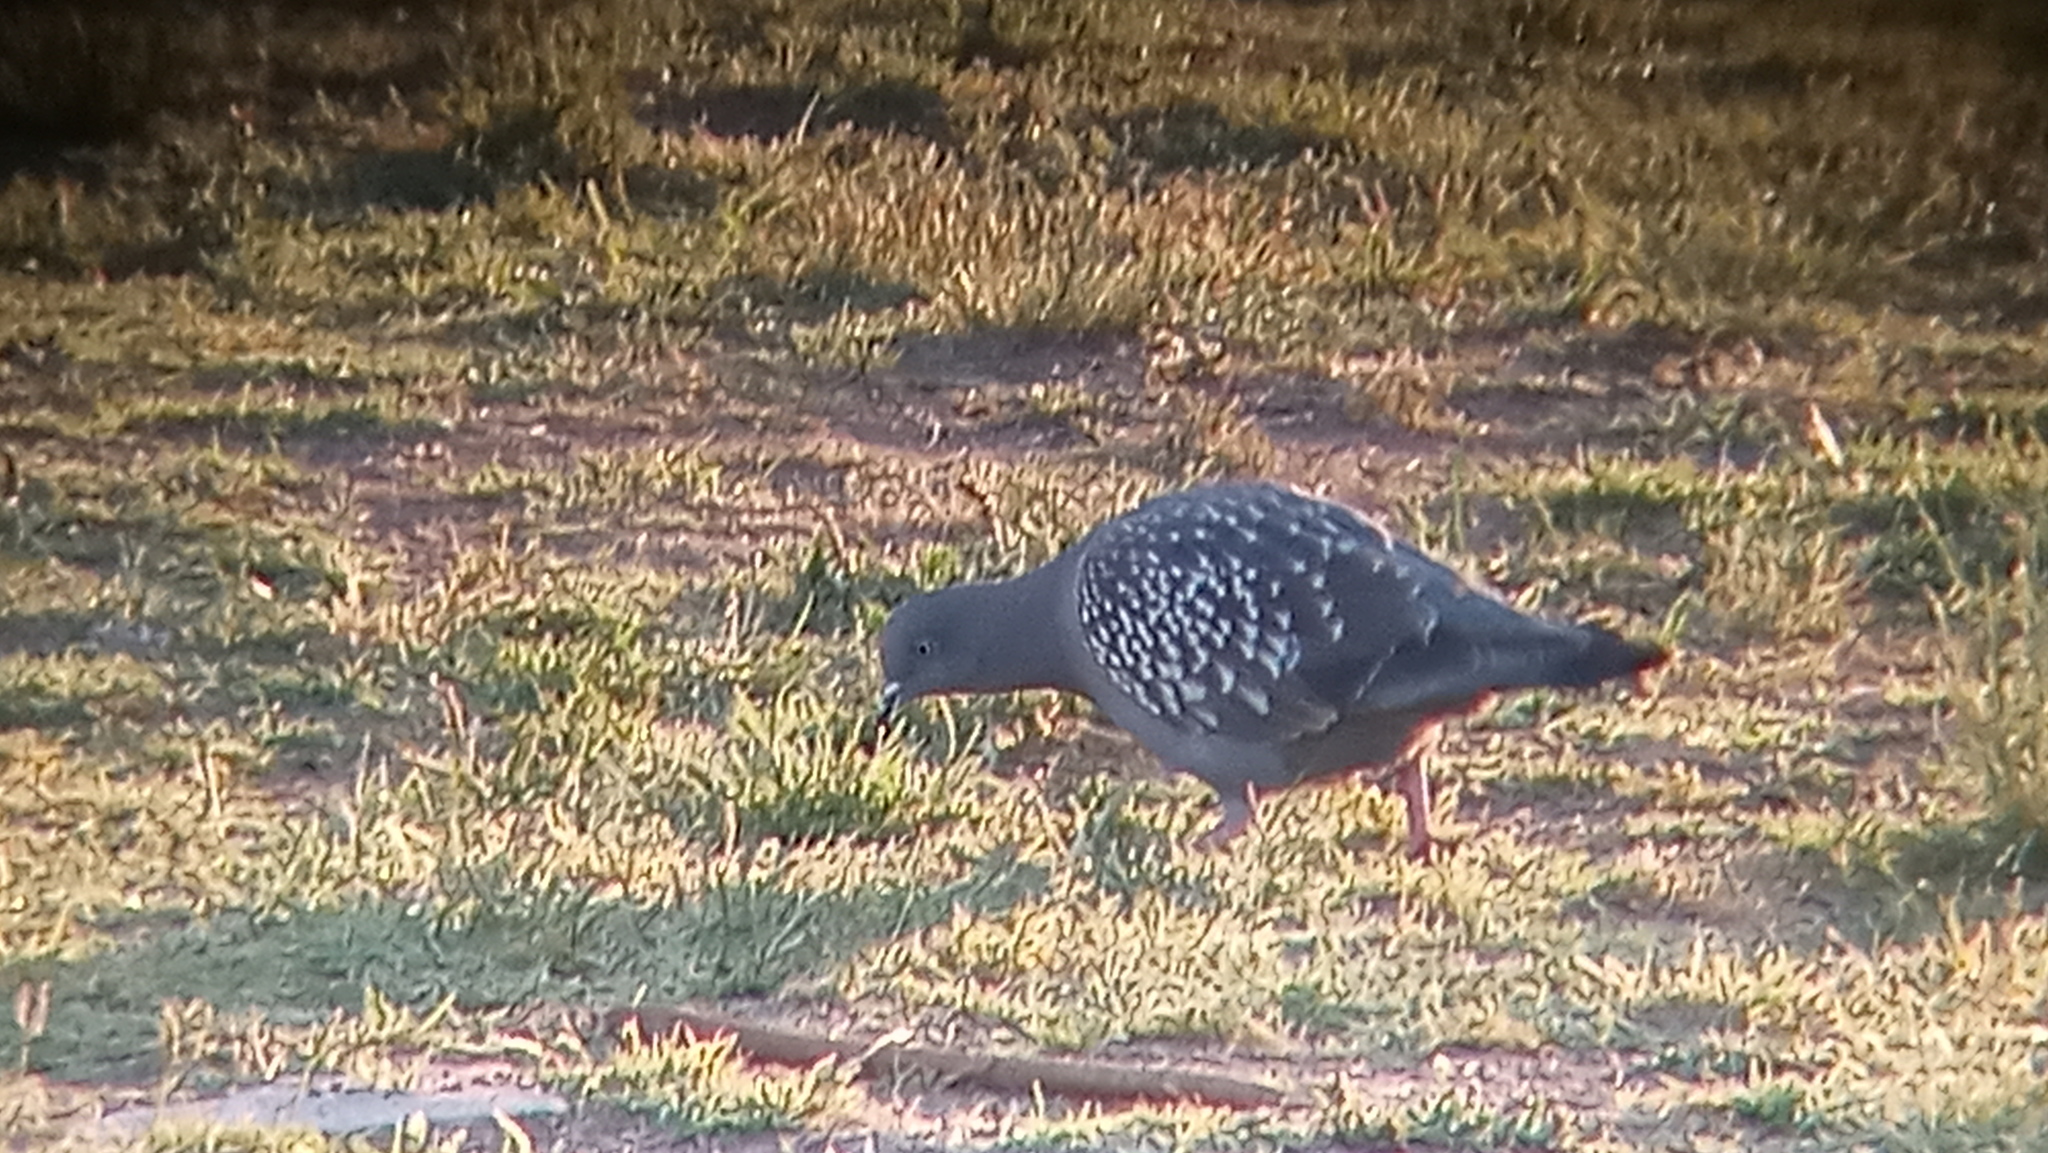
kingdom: Animalia
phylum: Chordata
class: Aves
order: Columbiformes
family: Columbidae
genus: Patagioenas
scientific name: Patagioenas maculosa
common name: Spot-winged pigeon
